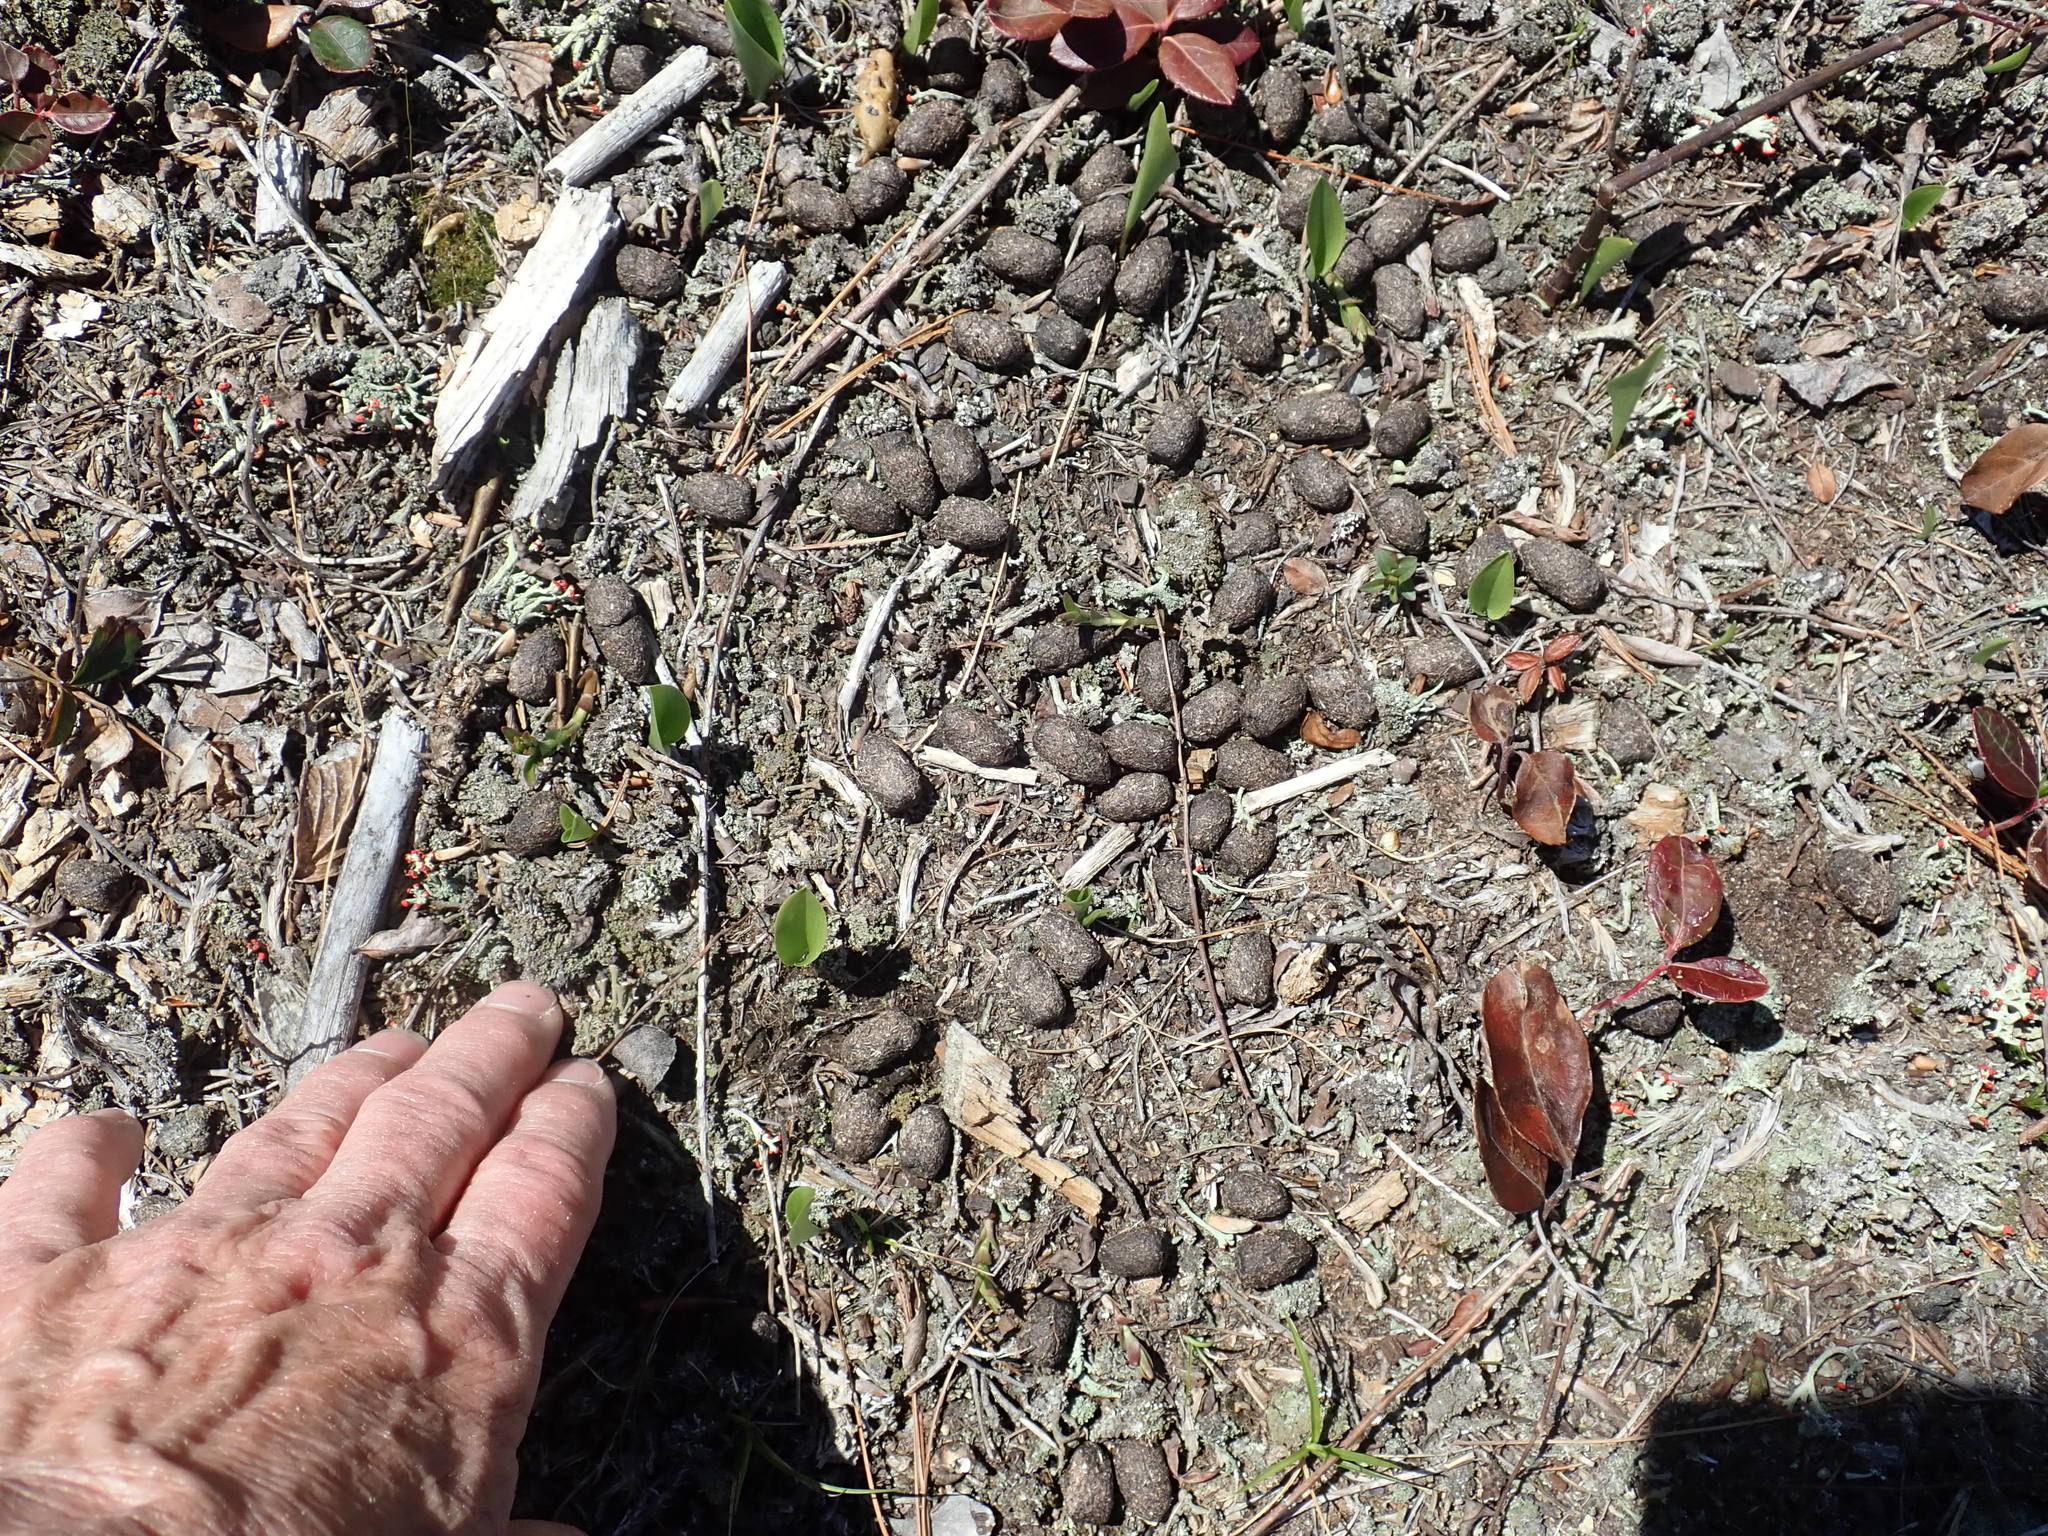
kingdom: Animalia
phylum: Chordata
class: Mammalia
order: Artiodactyla
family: Cervidae
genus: Odocoileus
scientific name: Odocoileus virginianus
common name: White-tailed deer
